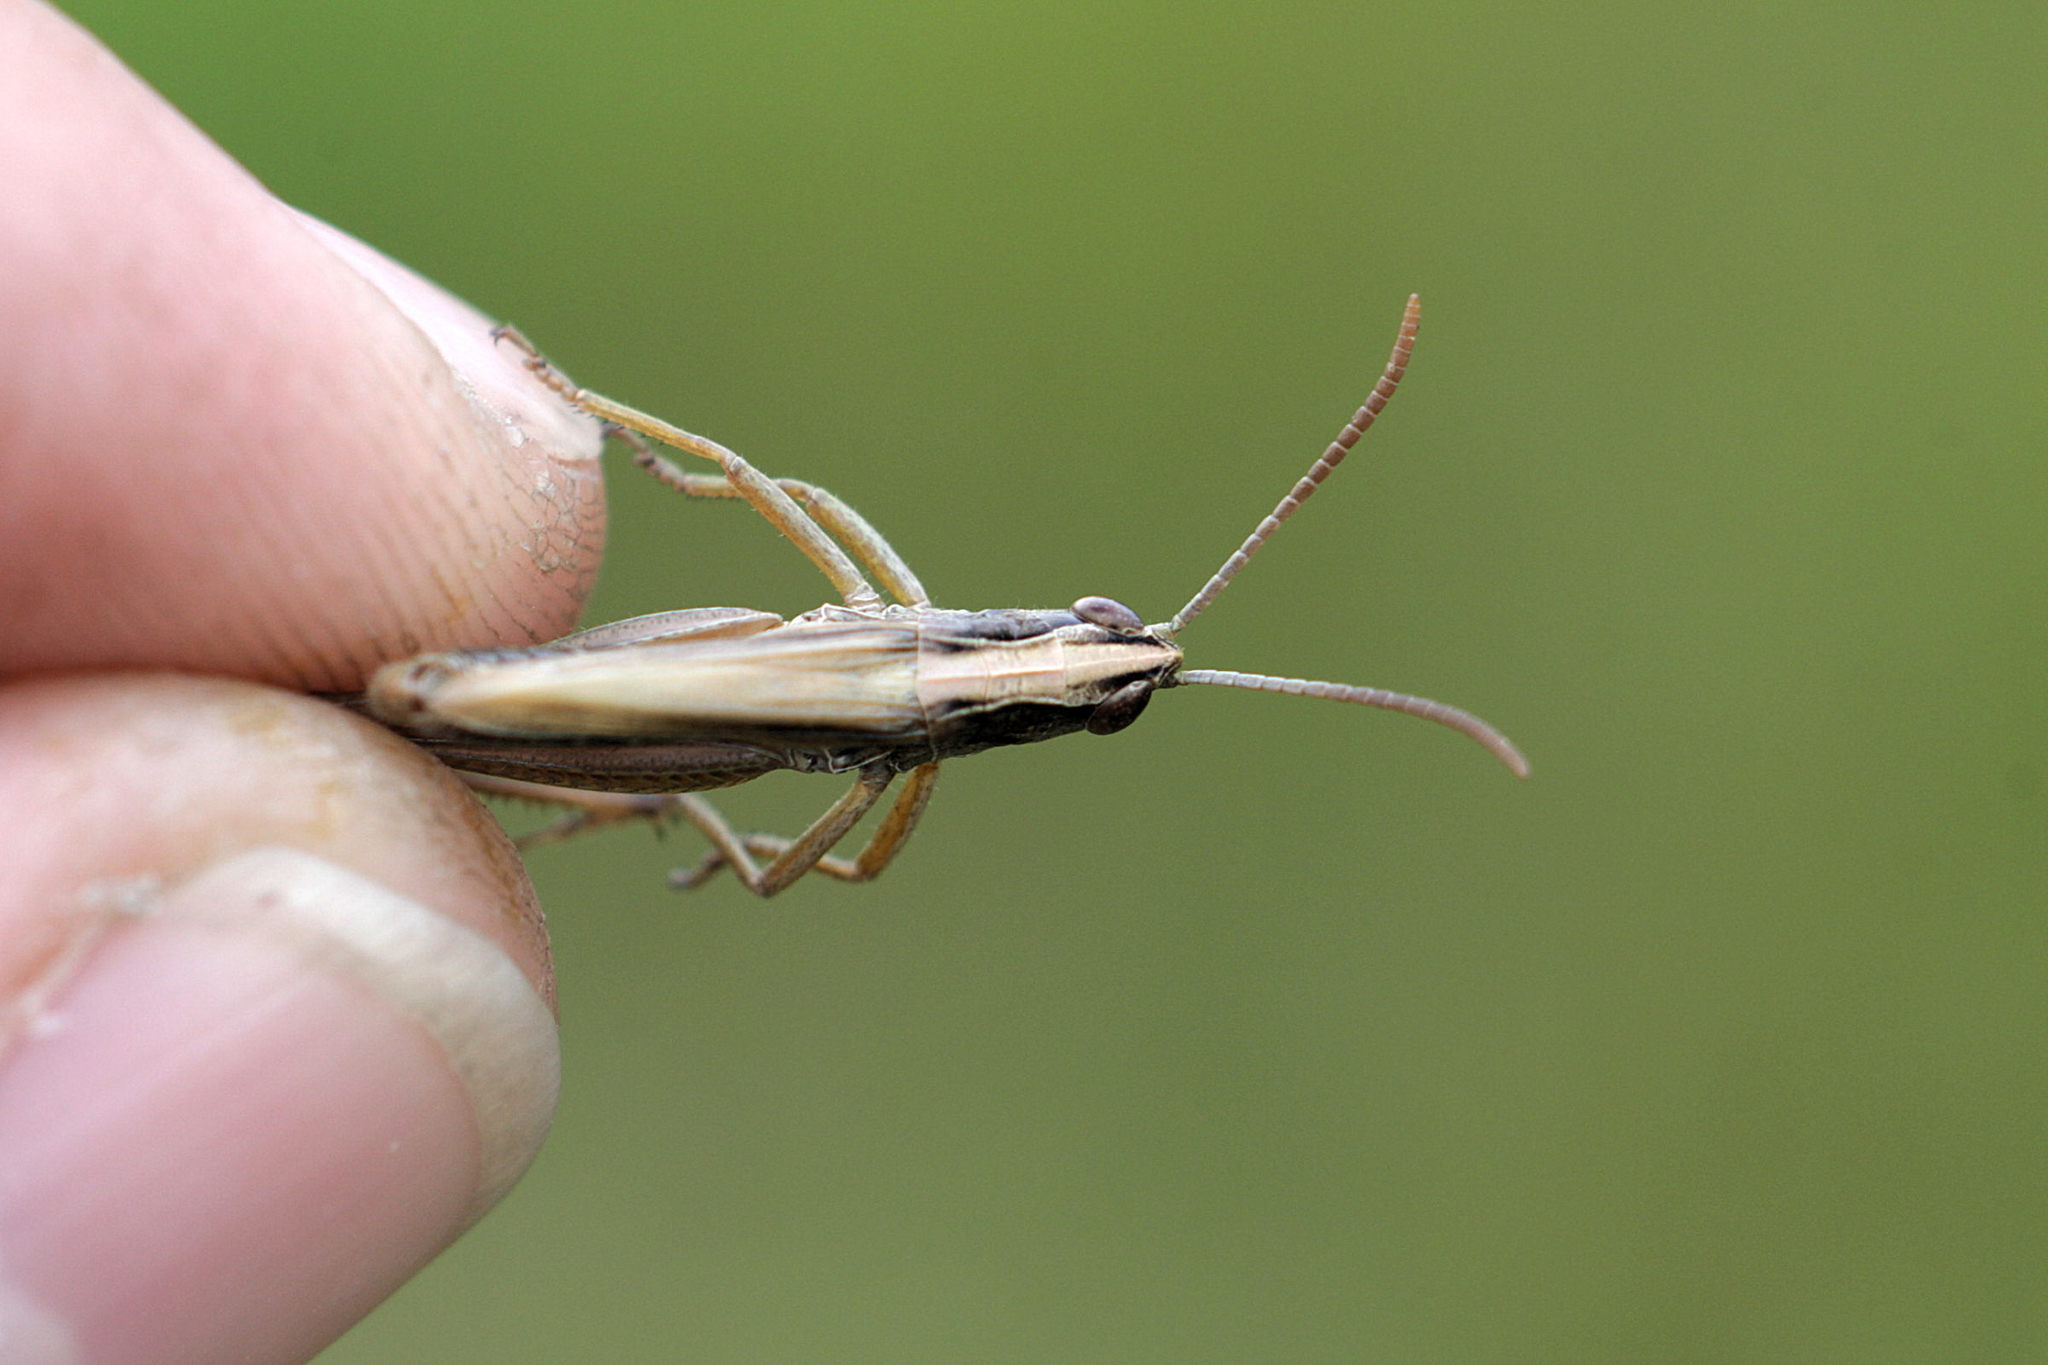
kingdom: Animalia
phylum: Arthropoda
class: Insecta
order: Orthoptera
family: Acrididae
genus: Pseudochorthippus
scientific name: Pseudochorthippus parallelus
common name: Meadow grasshopper
